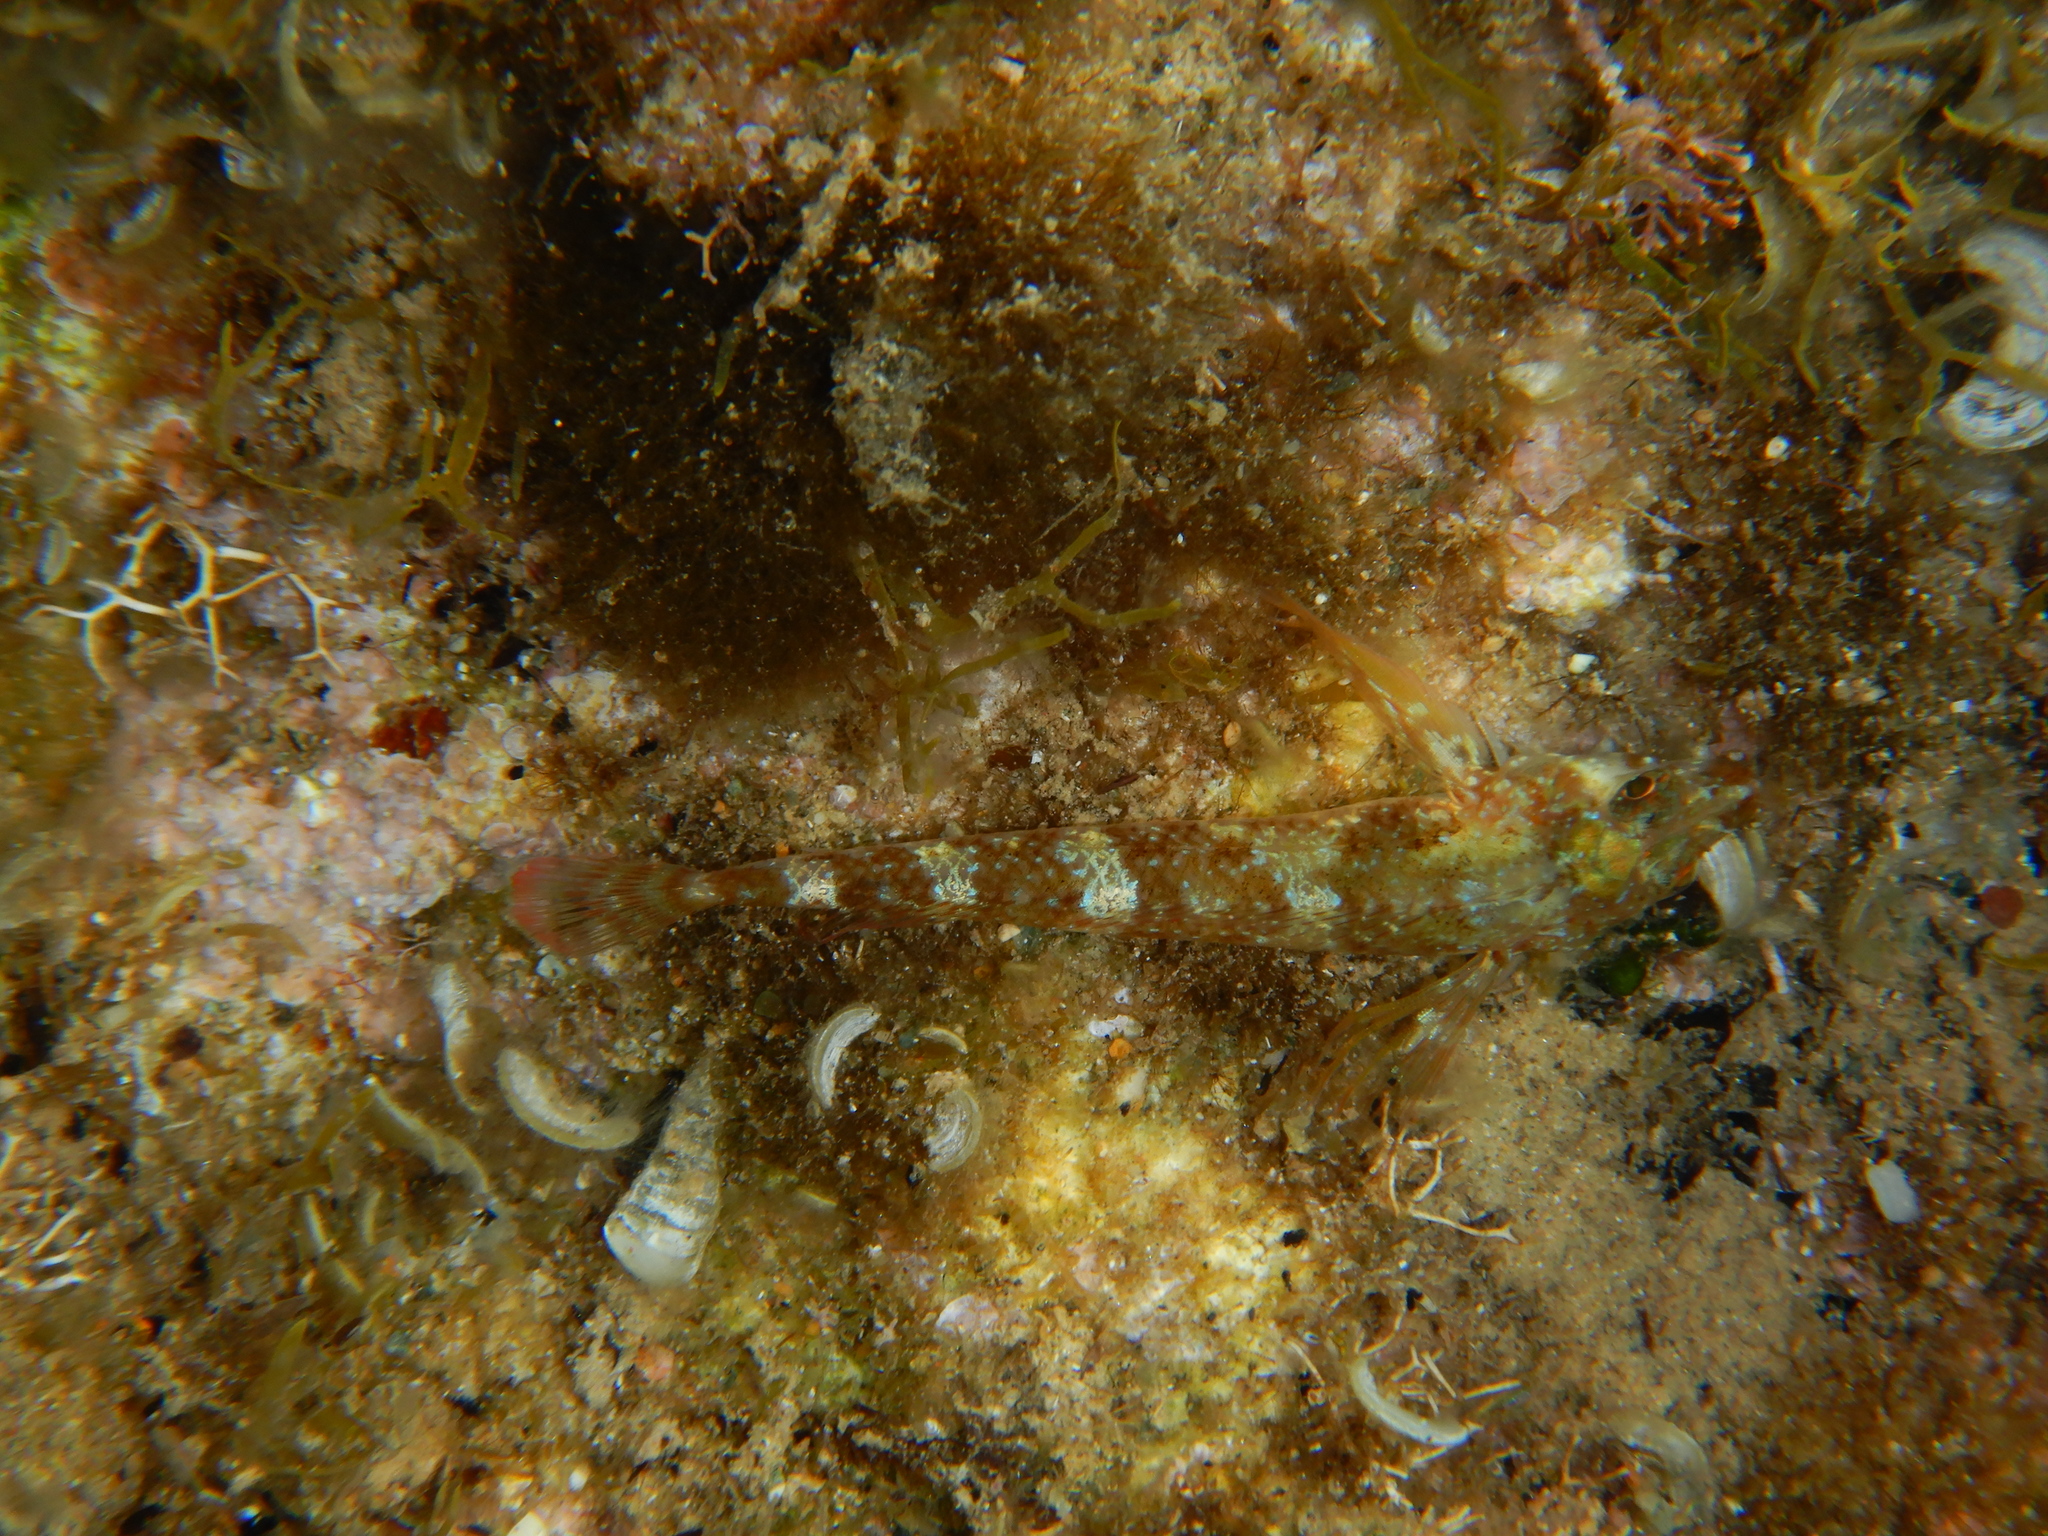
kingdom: Animalia
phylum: Chordata
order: Perciformes
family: Tripterygiidae
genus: Tripterygion
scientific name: Tripterygion tripteronotum
